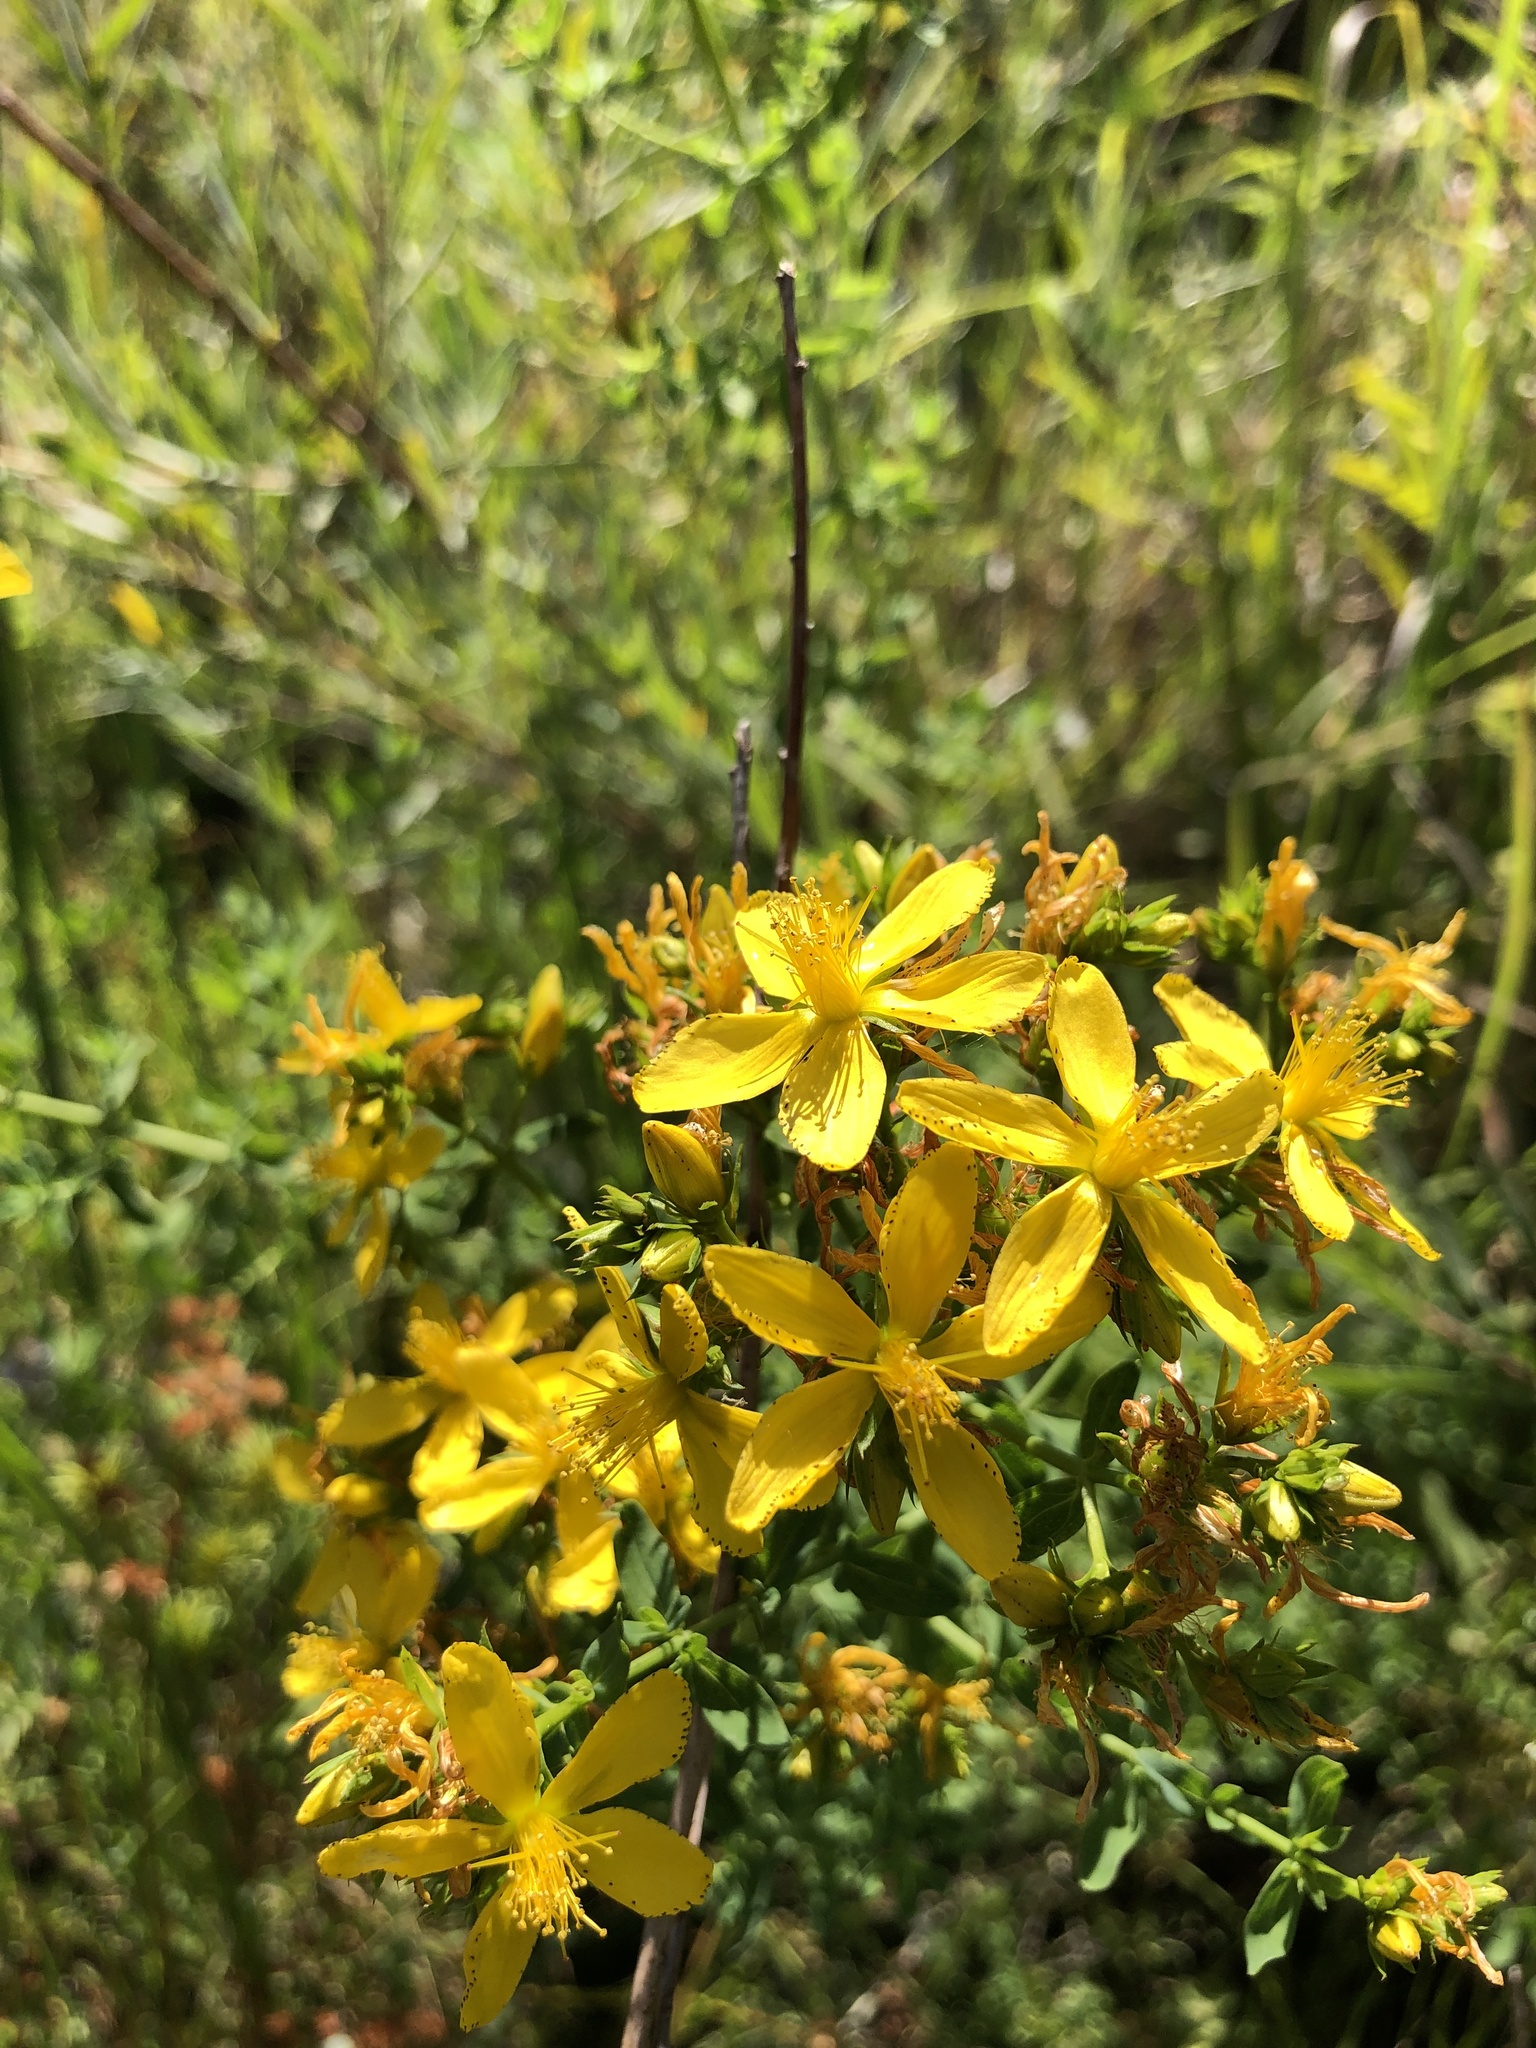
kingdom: Plantae
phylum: Tracheophyta
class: Magnoliopsida
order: Malpighiales
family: Hypericaceae
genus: Hypericum
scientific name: Hypericum perforatum
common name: Common st. johnswort
